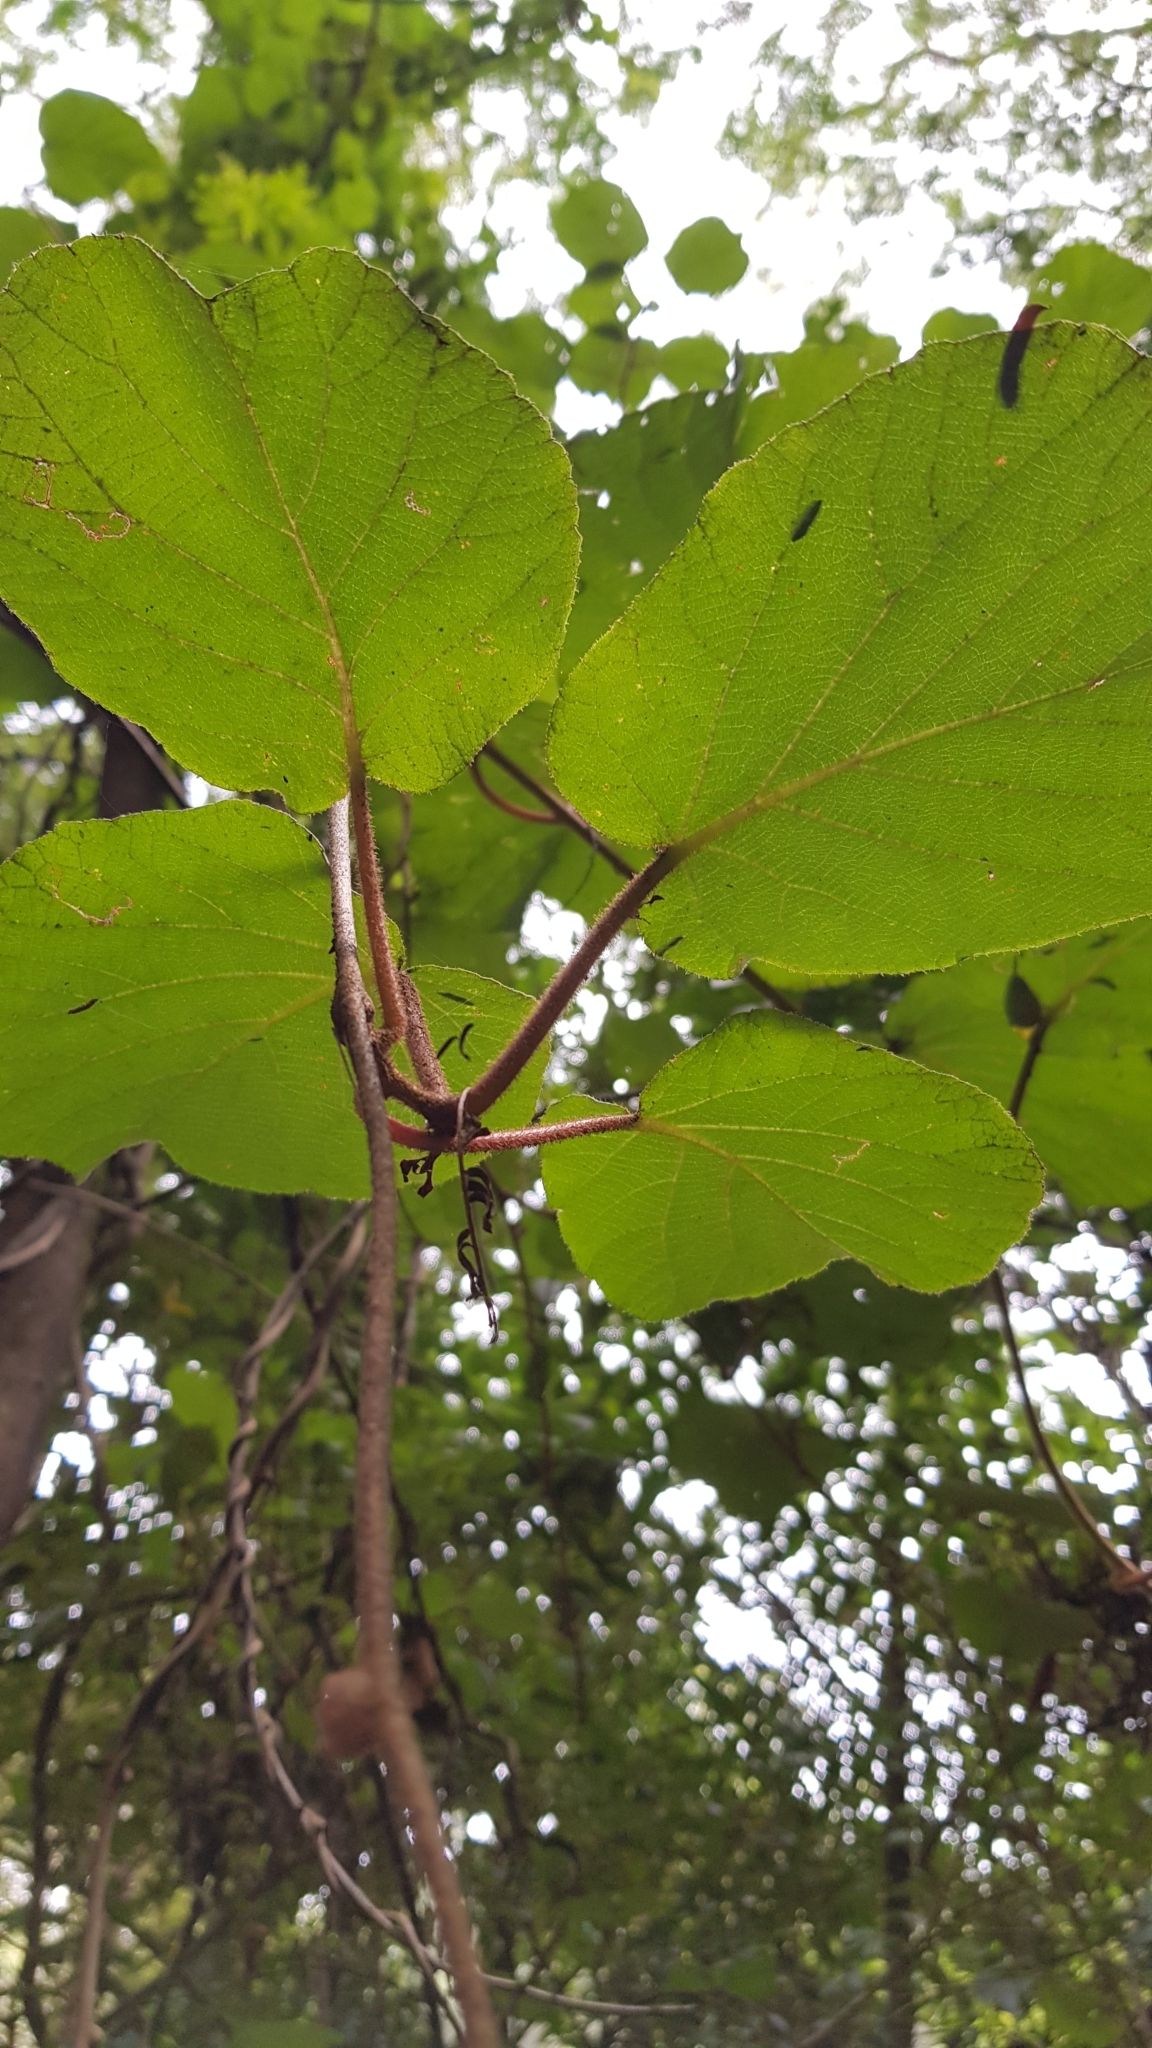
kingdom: Plantae
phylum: Tracheophyta
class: Magnoliopsida
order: Ericales
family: Actinidiaceae
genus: Actinidia
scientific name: Actinidia chinensis
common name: Kiwi
